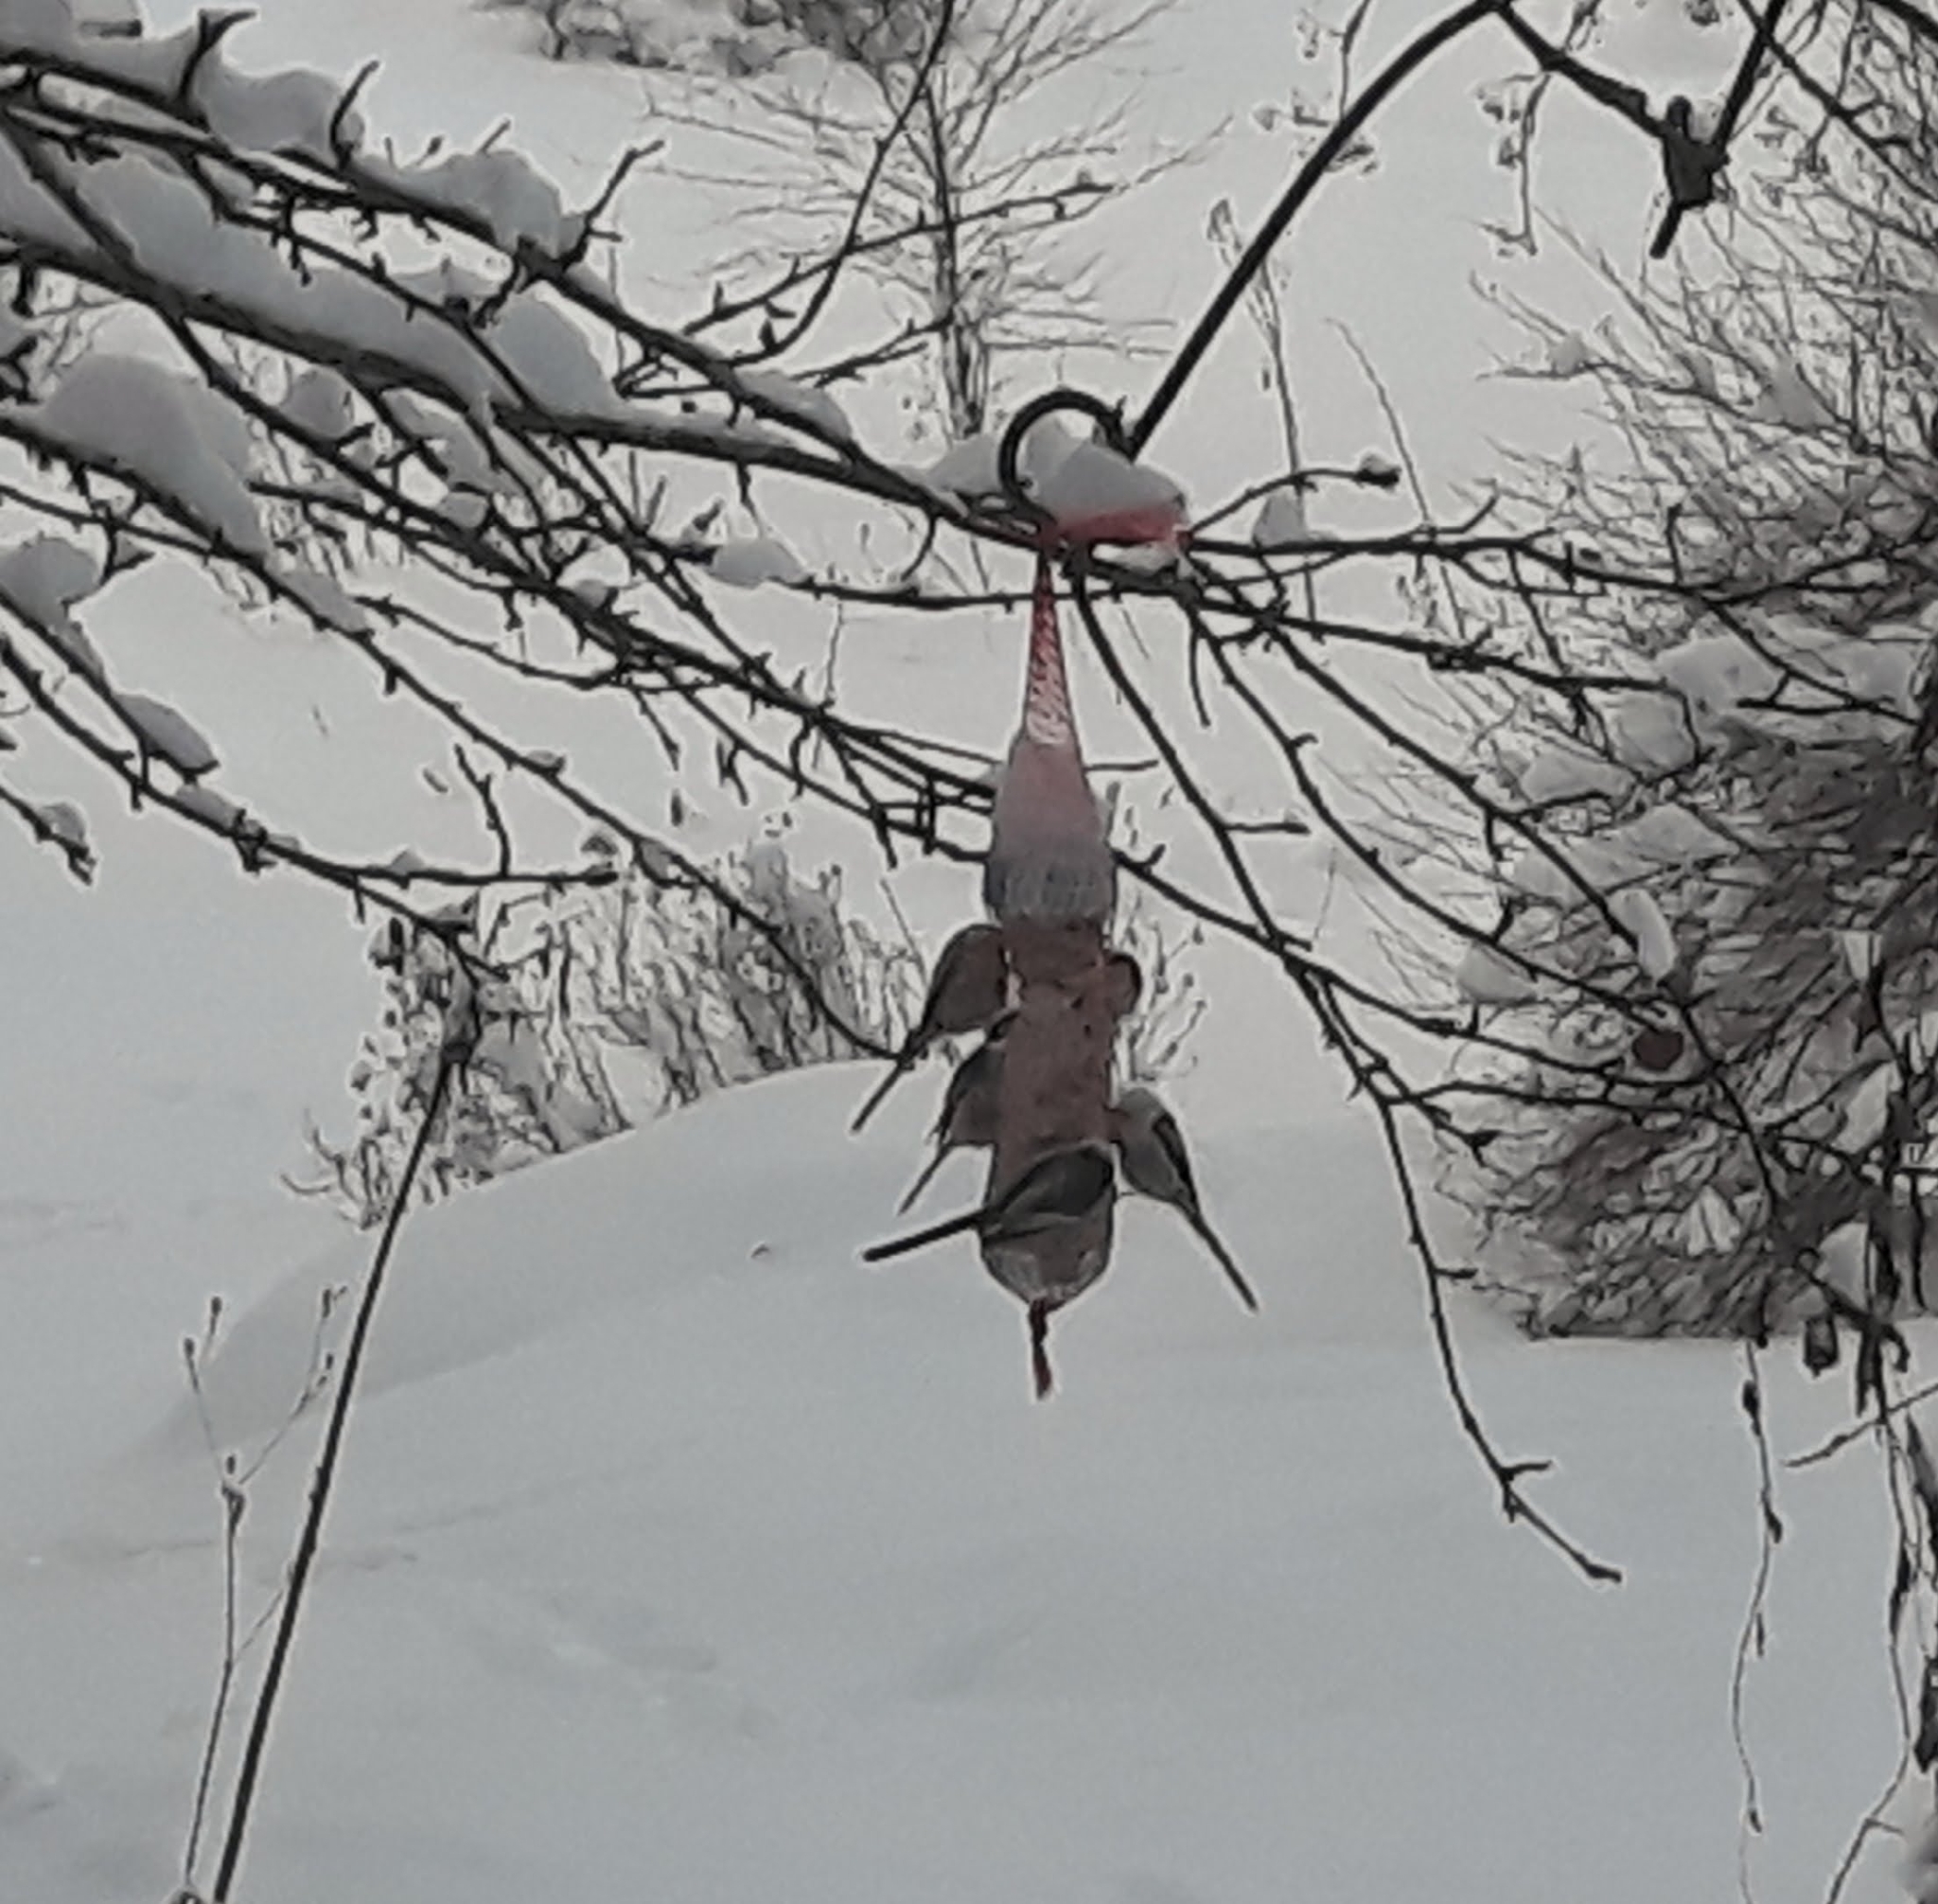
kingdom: Animalia
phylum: Chordata
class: Aves
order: Passeriformes
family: Aegithalidae
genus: Aegithalos
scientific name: Aegithalos caudatus
